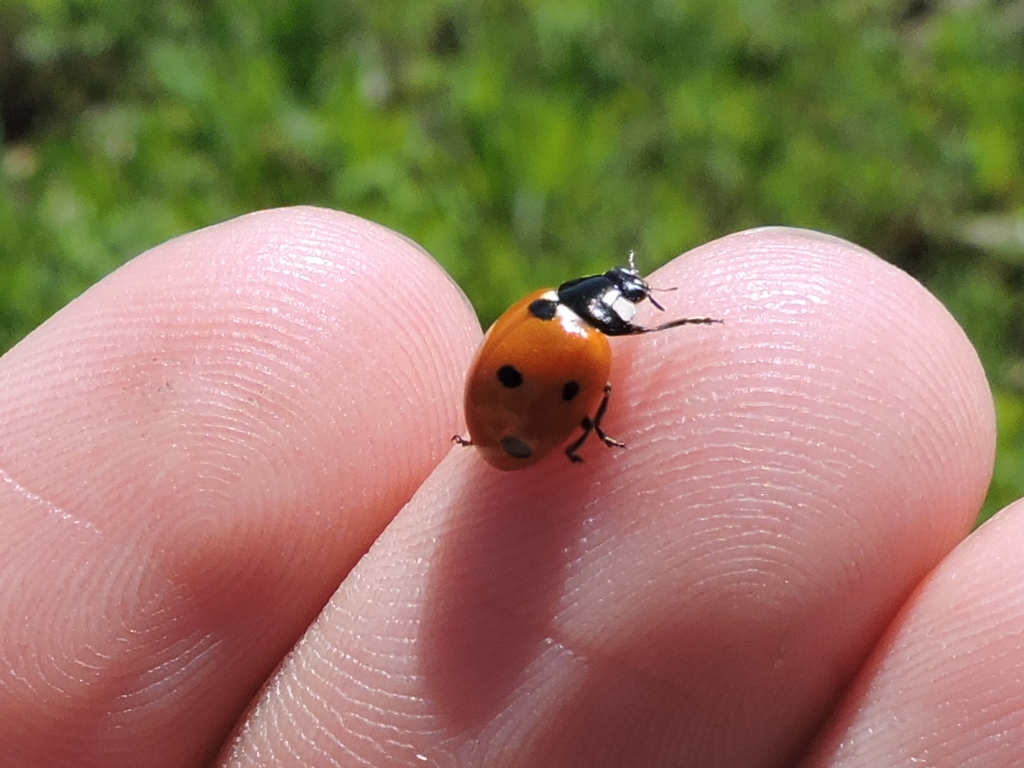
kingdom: Animalia
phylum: Arthropoda
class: Insecta
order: Coleoptera
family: Coccinellidae
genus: Coccinella
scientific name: Coccinella septempunctata
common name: Sevenspotted lady beetle
